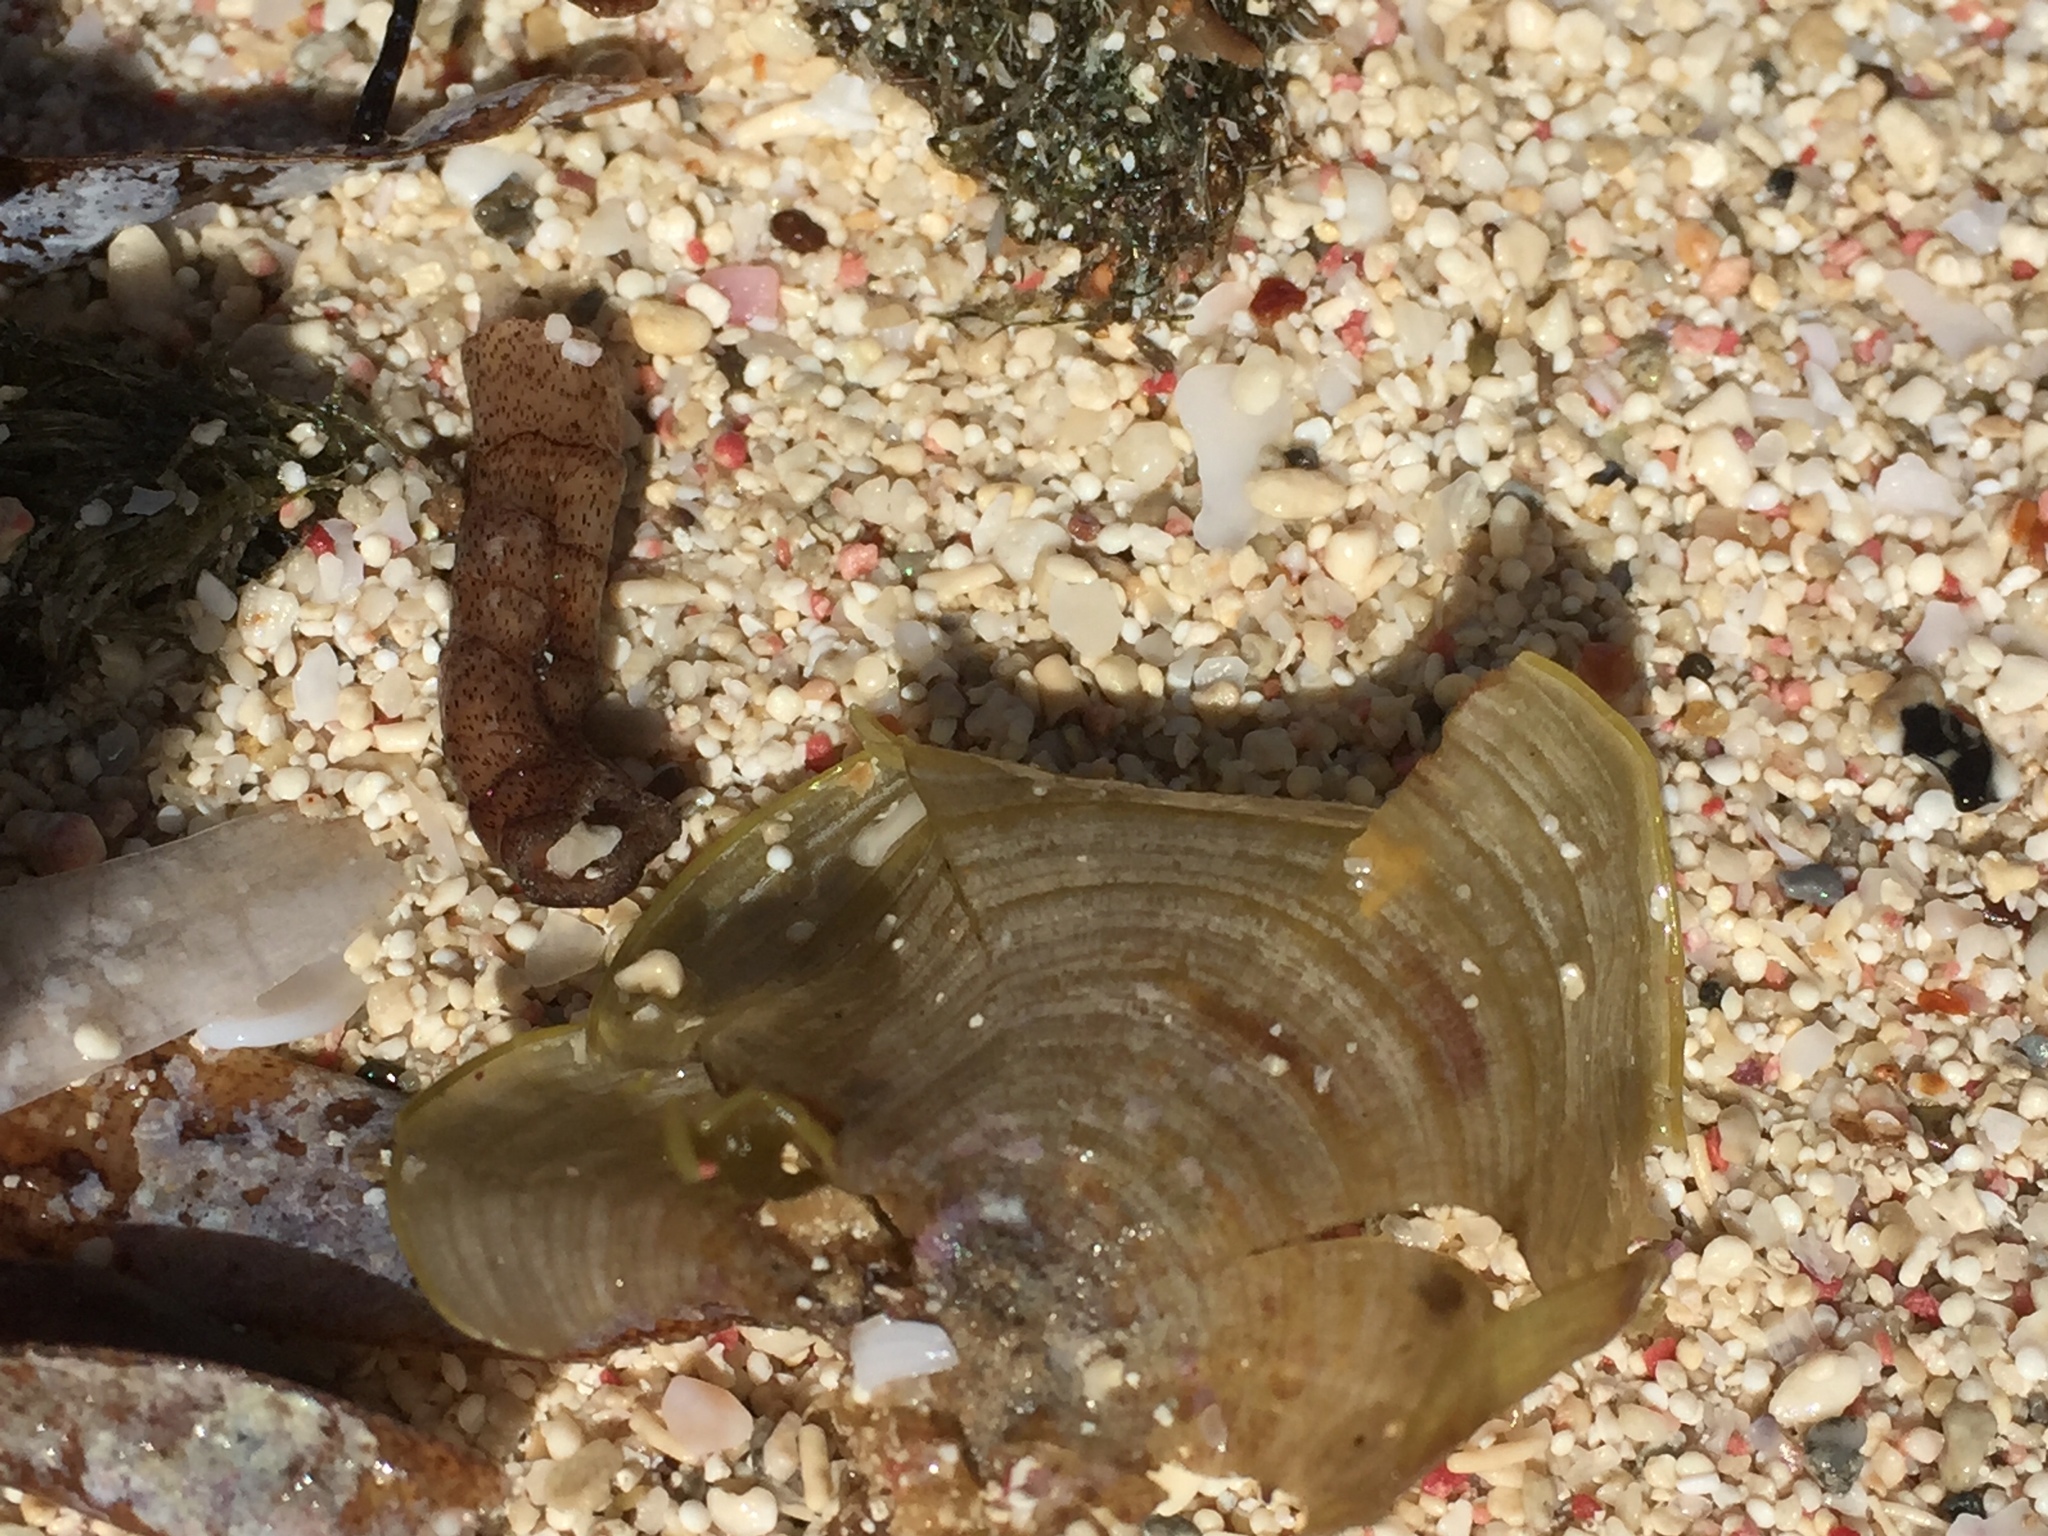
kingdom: Chromista
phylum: Ochrophyta
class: Phaeophyceae
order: Dictyotales
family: Dictyotaceae
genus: Padina
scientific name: Padina sanctae-crucis
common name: White scroll algae
